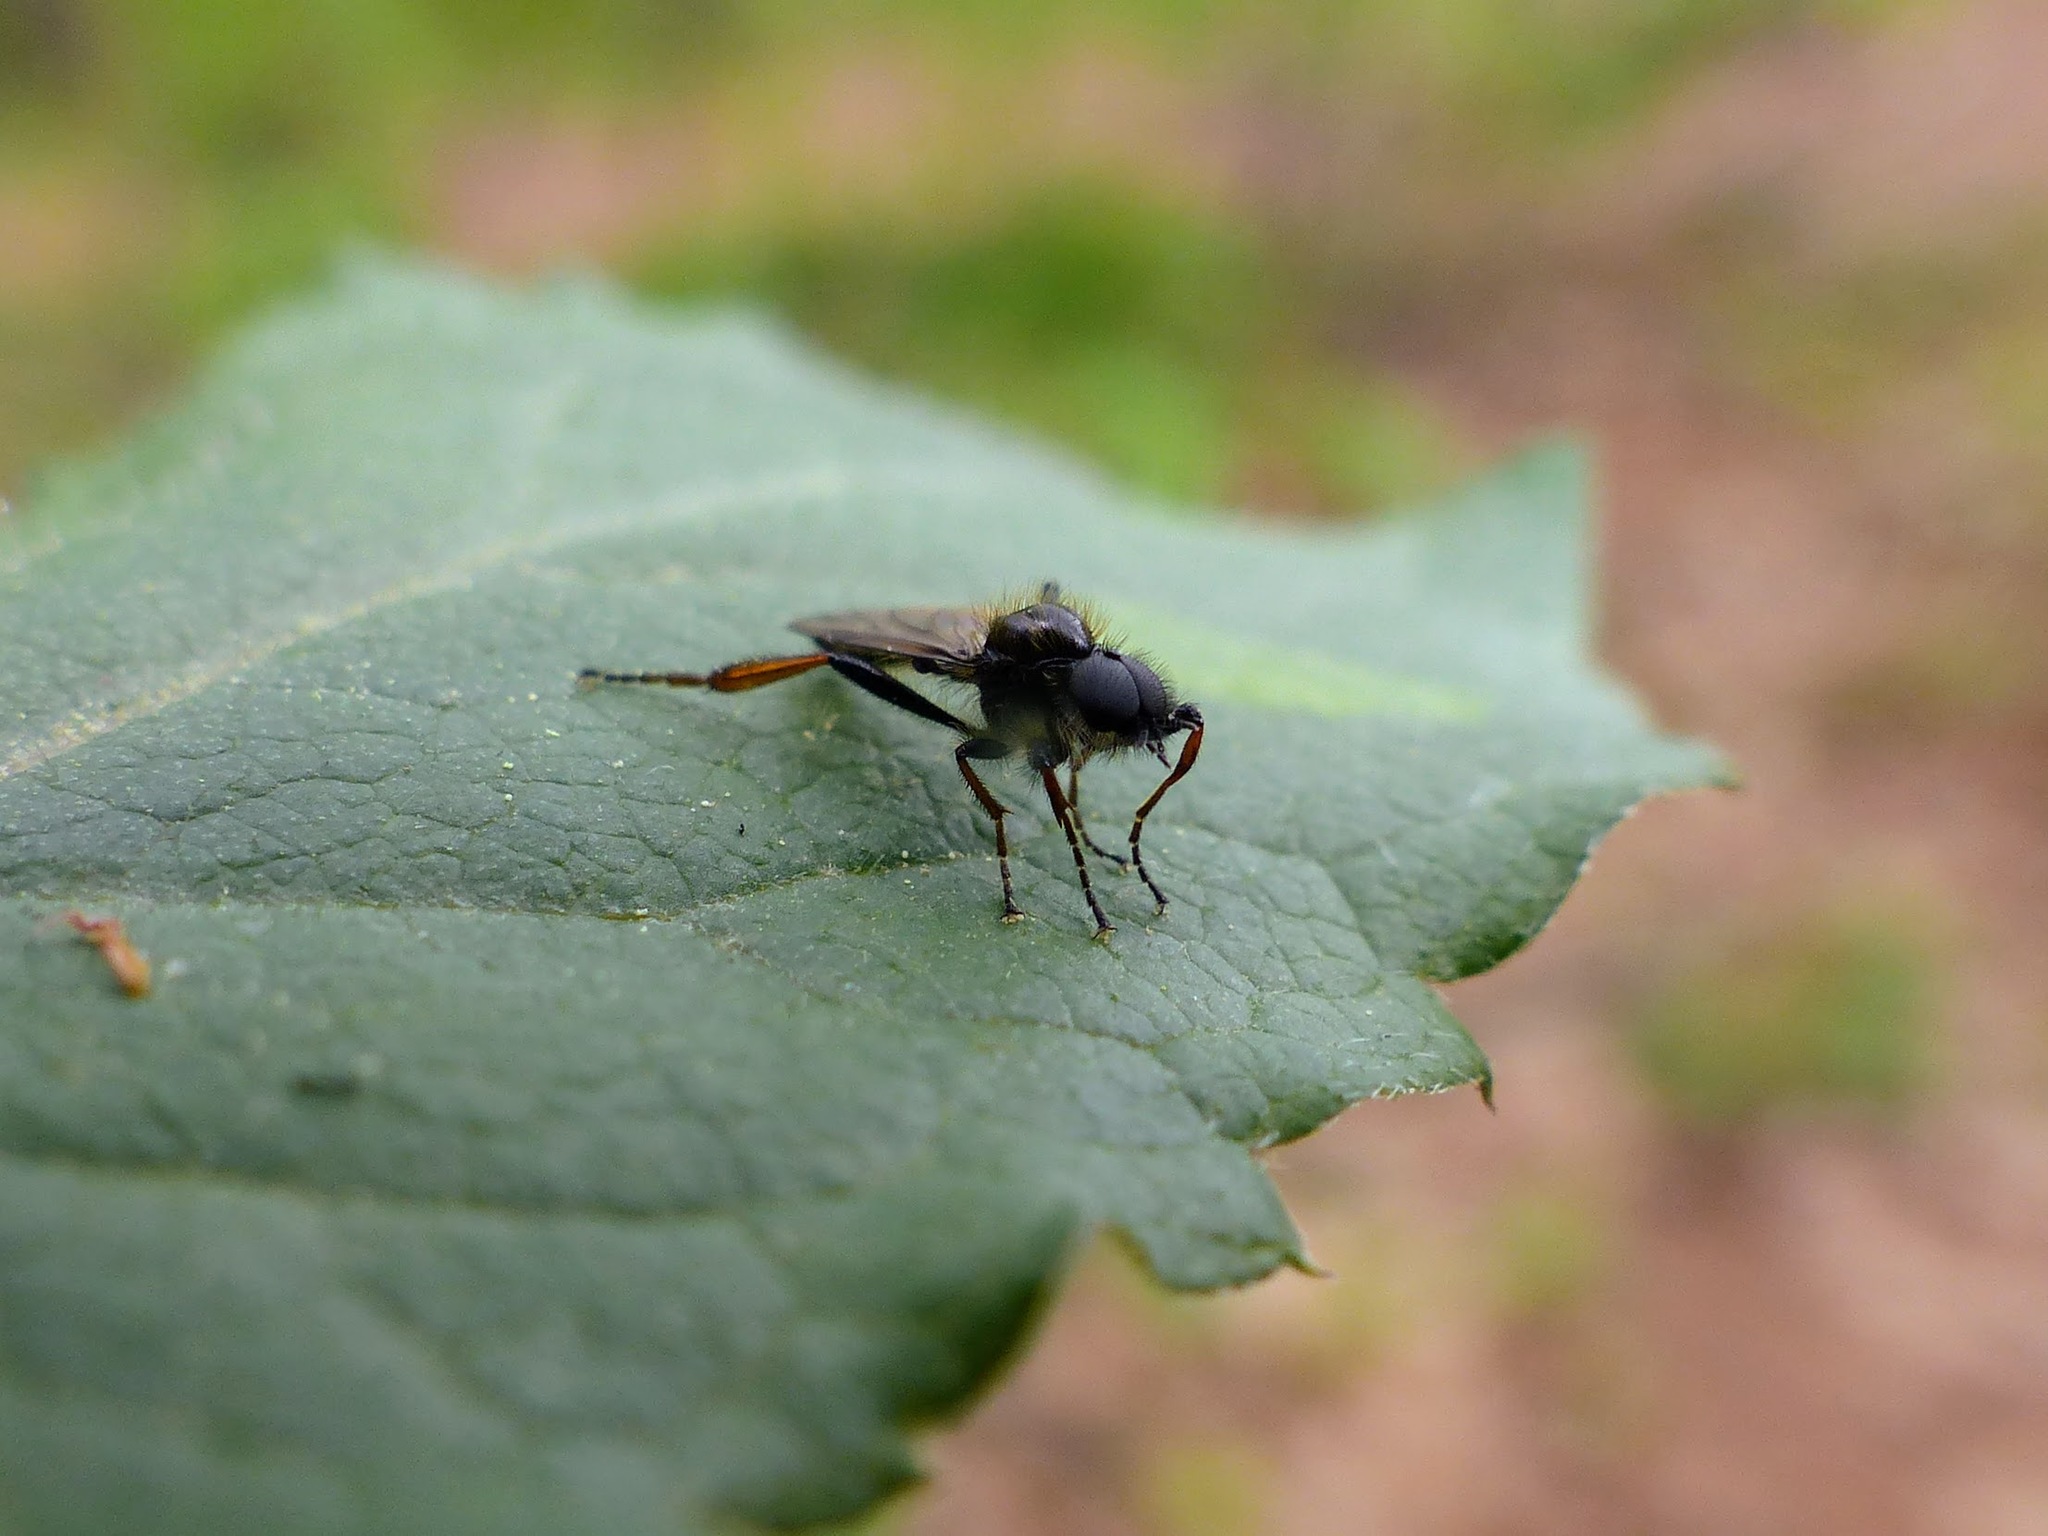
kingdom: Animalia
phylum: Arthropoda
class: Insecta
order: Diptera
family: Bibionidae
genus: Bibio
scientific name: Bibio lanigerus
